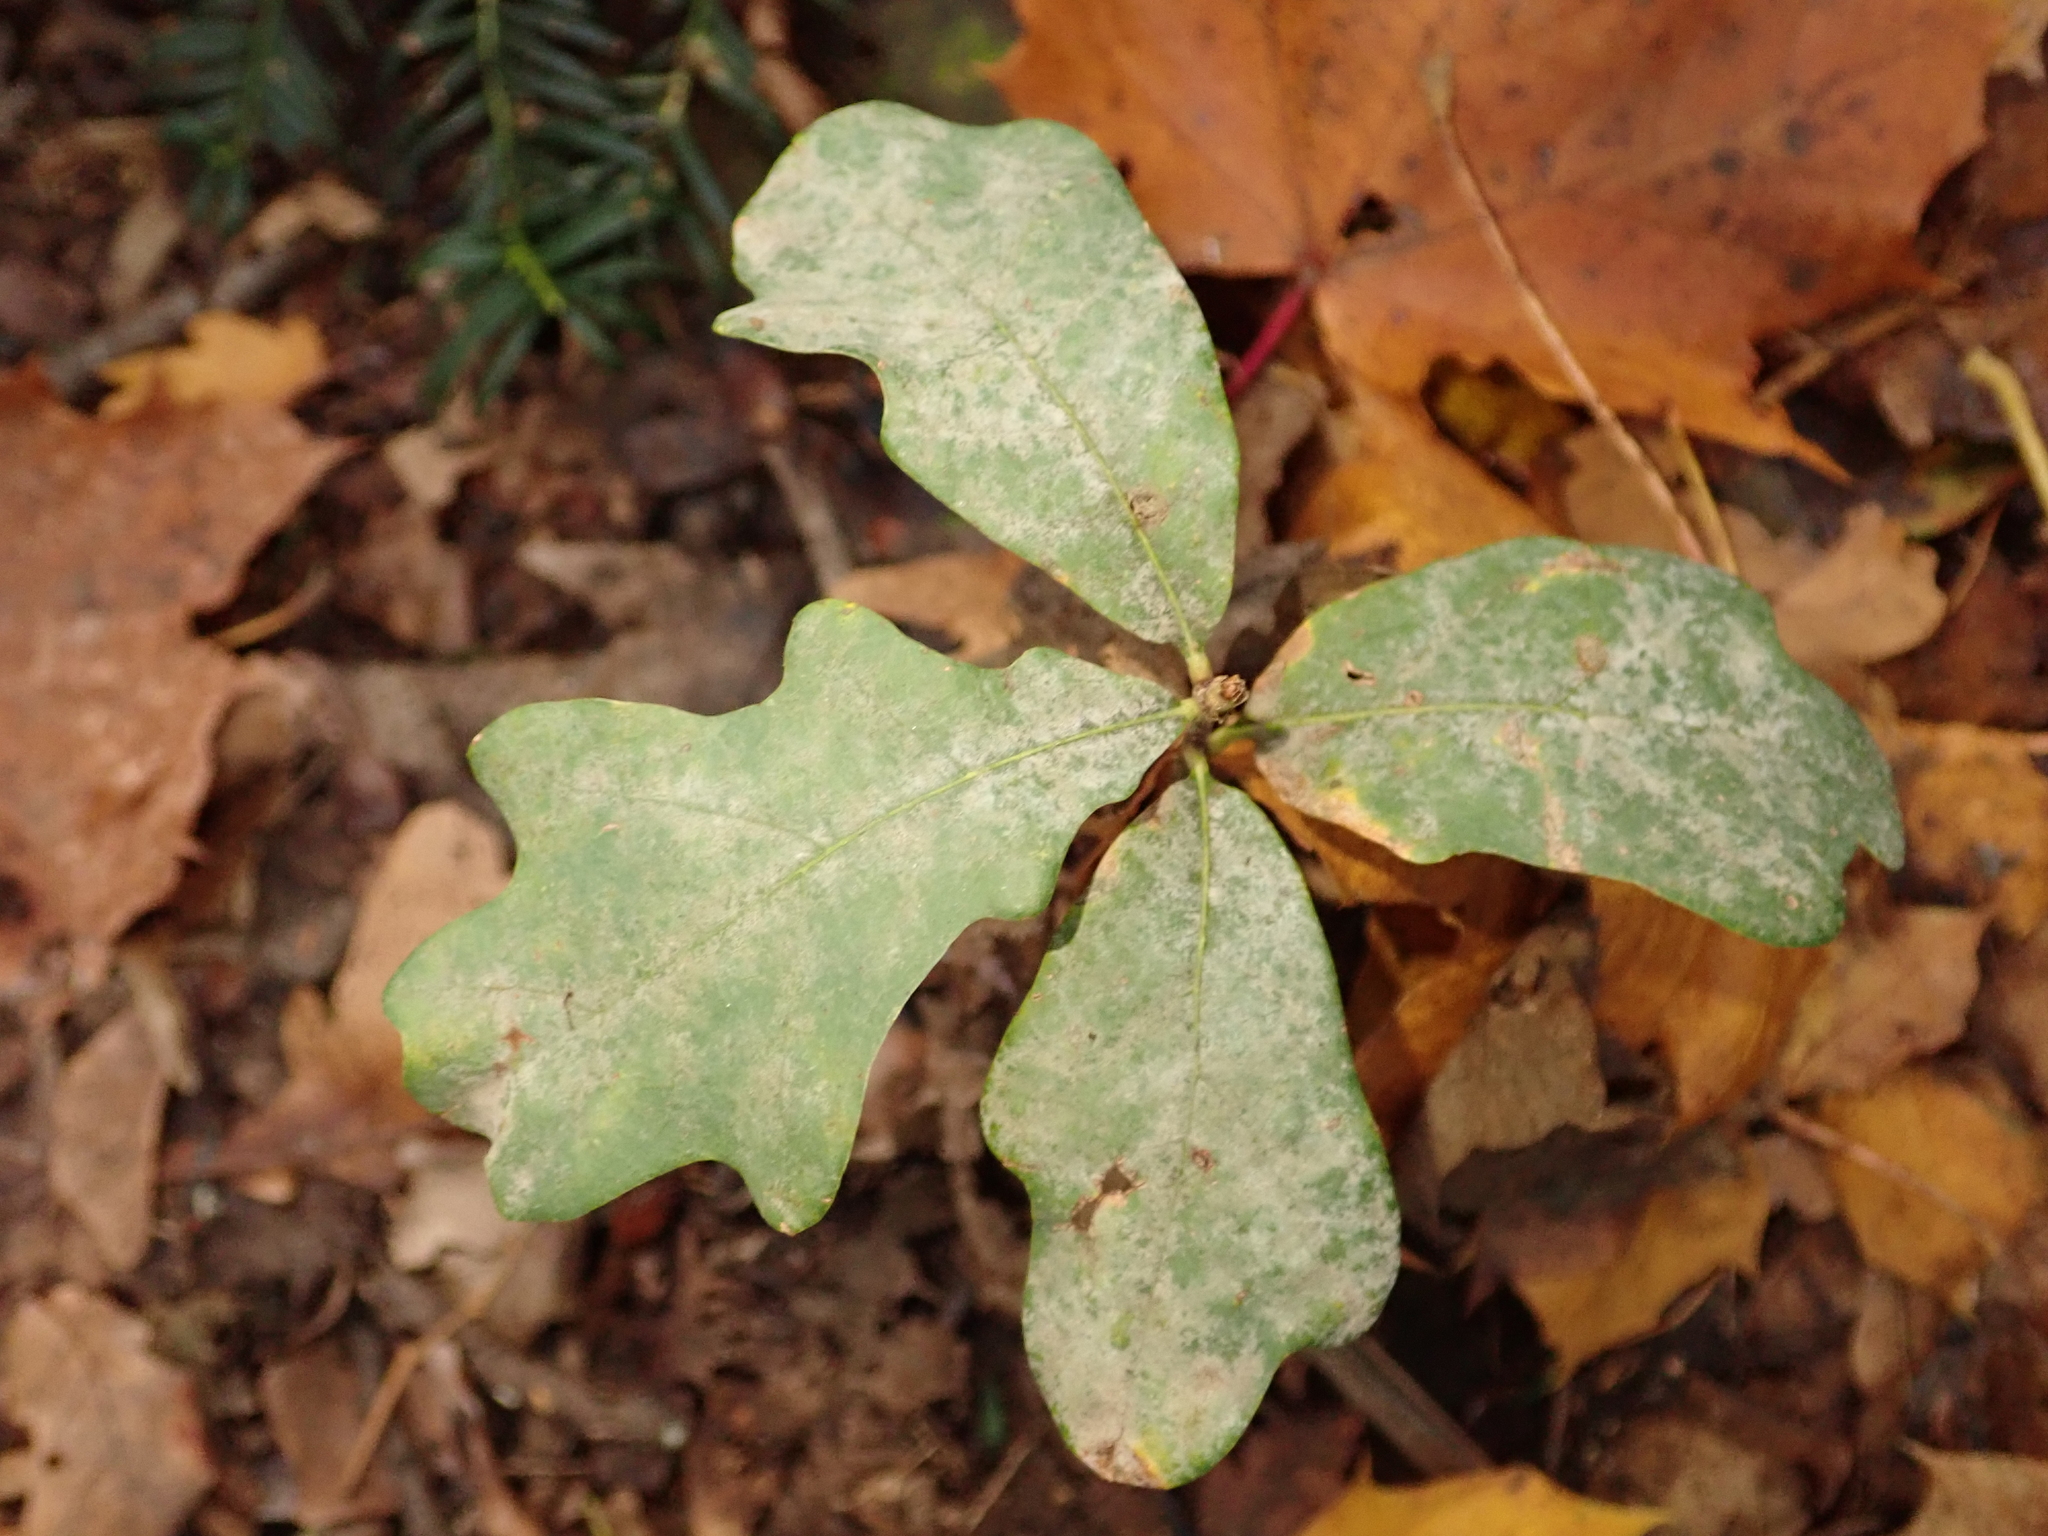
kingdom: Plantae
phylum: Tracheophyta
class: Magnoliopsida
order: Fagales
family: Fagaceae
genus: Quercus
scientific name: Quercus robur
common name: Pedunculate oak
